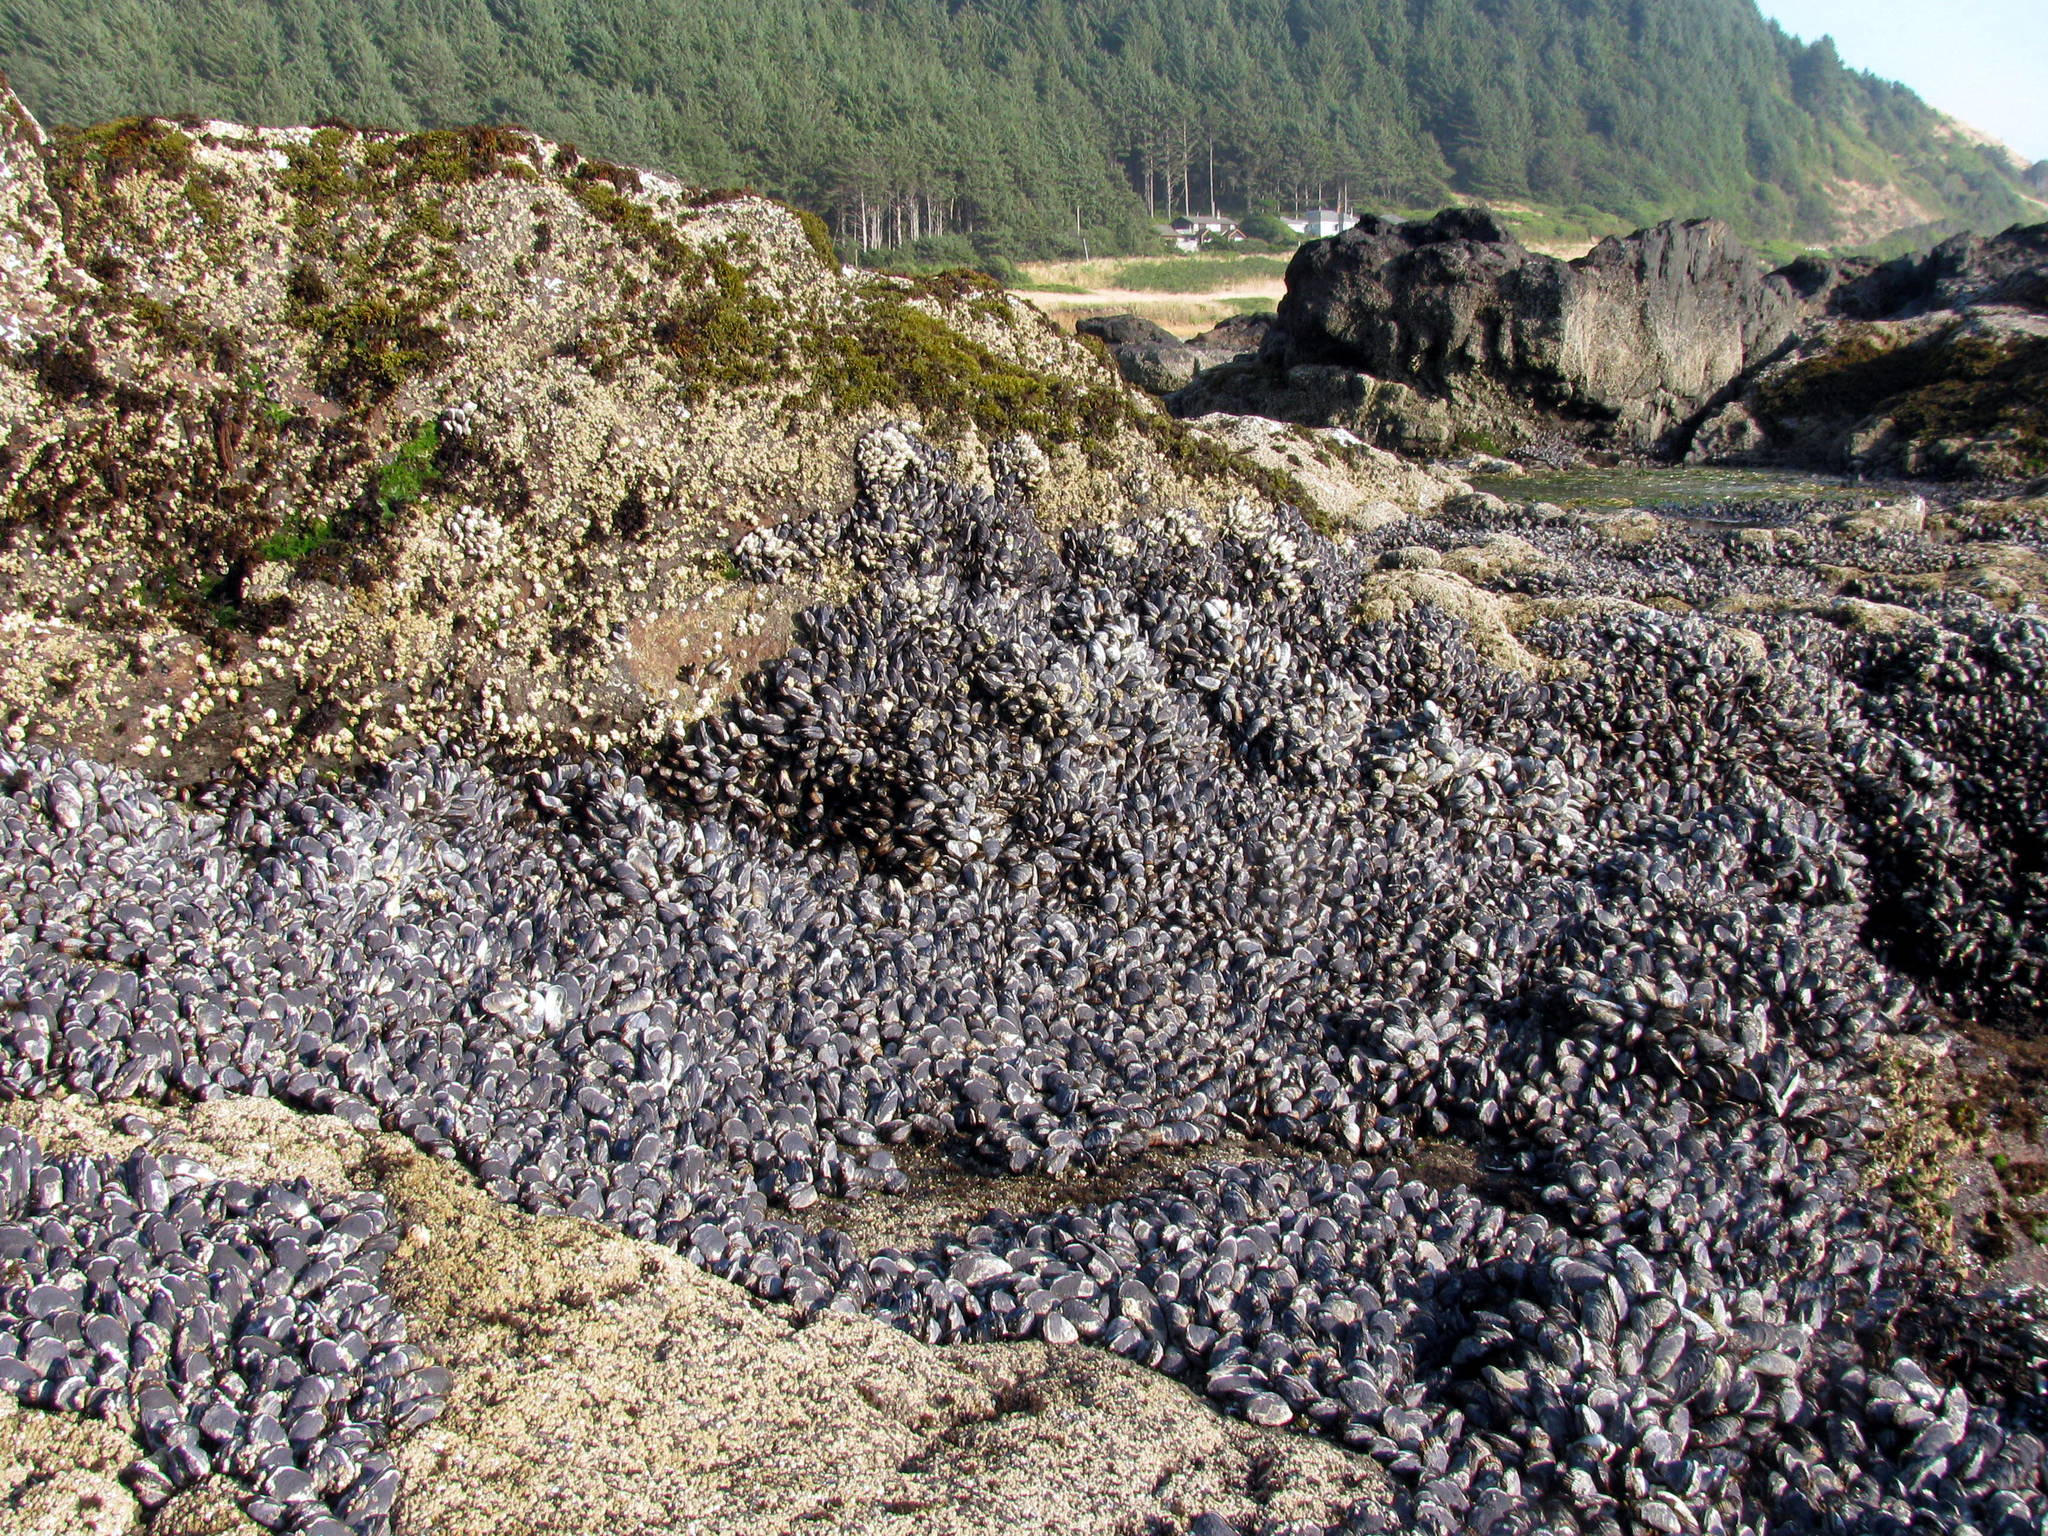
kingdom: Animalia
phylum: Mollusca
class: Bivalvia
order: Mytilida
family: Mytilidae
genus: Mytilus
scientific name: Mytilus californianus
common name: California mussel
